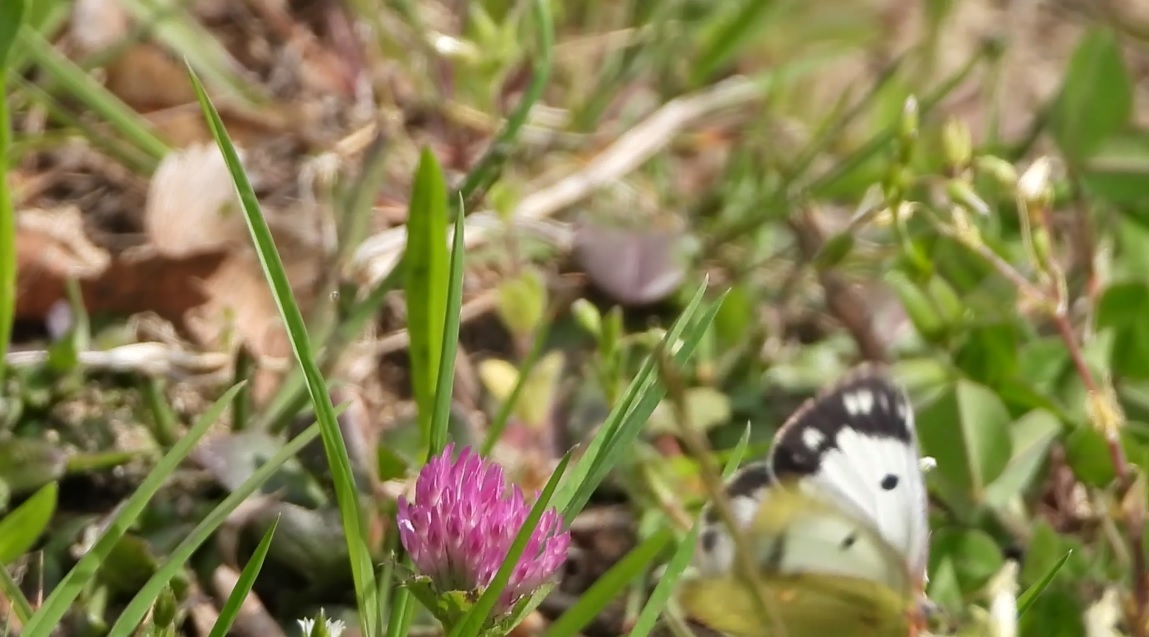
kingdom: Animalia
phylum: Arthropoda
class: Insecta
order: Lepidoptera
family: Pieridae
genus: Colias
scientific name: Colias croceus
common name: Clouded yellow
